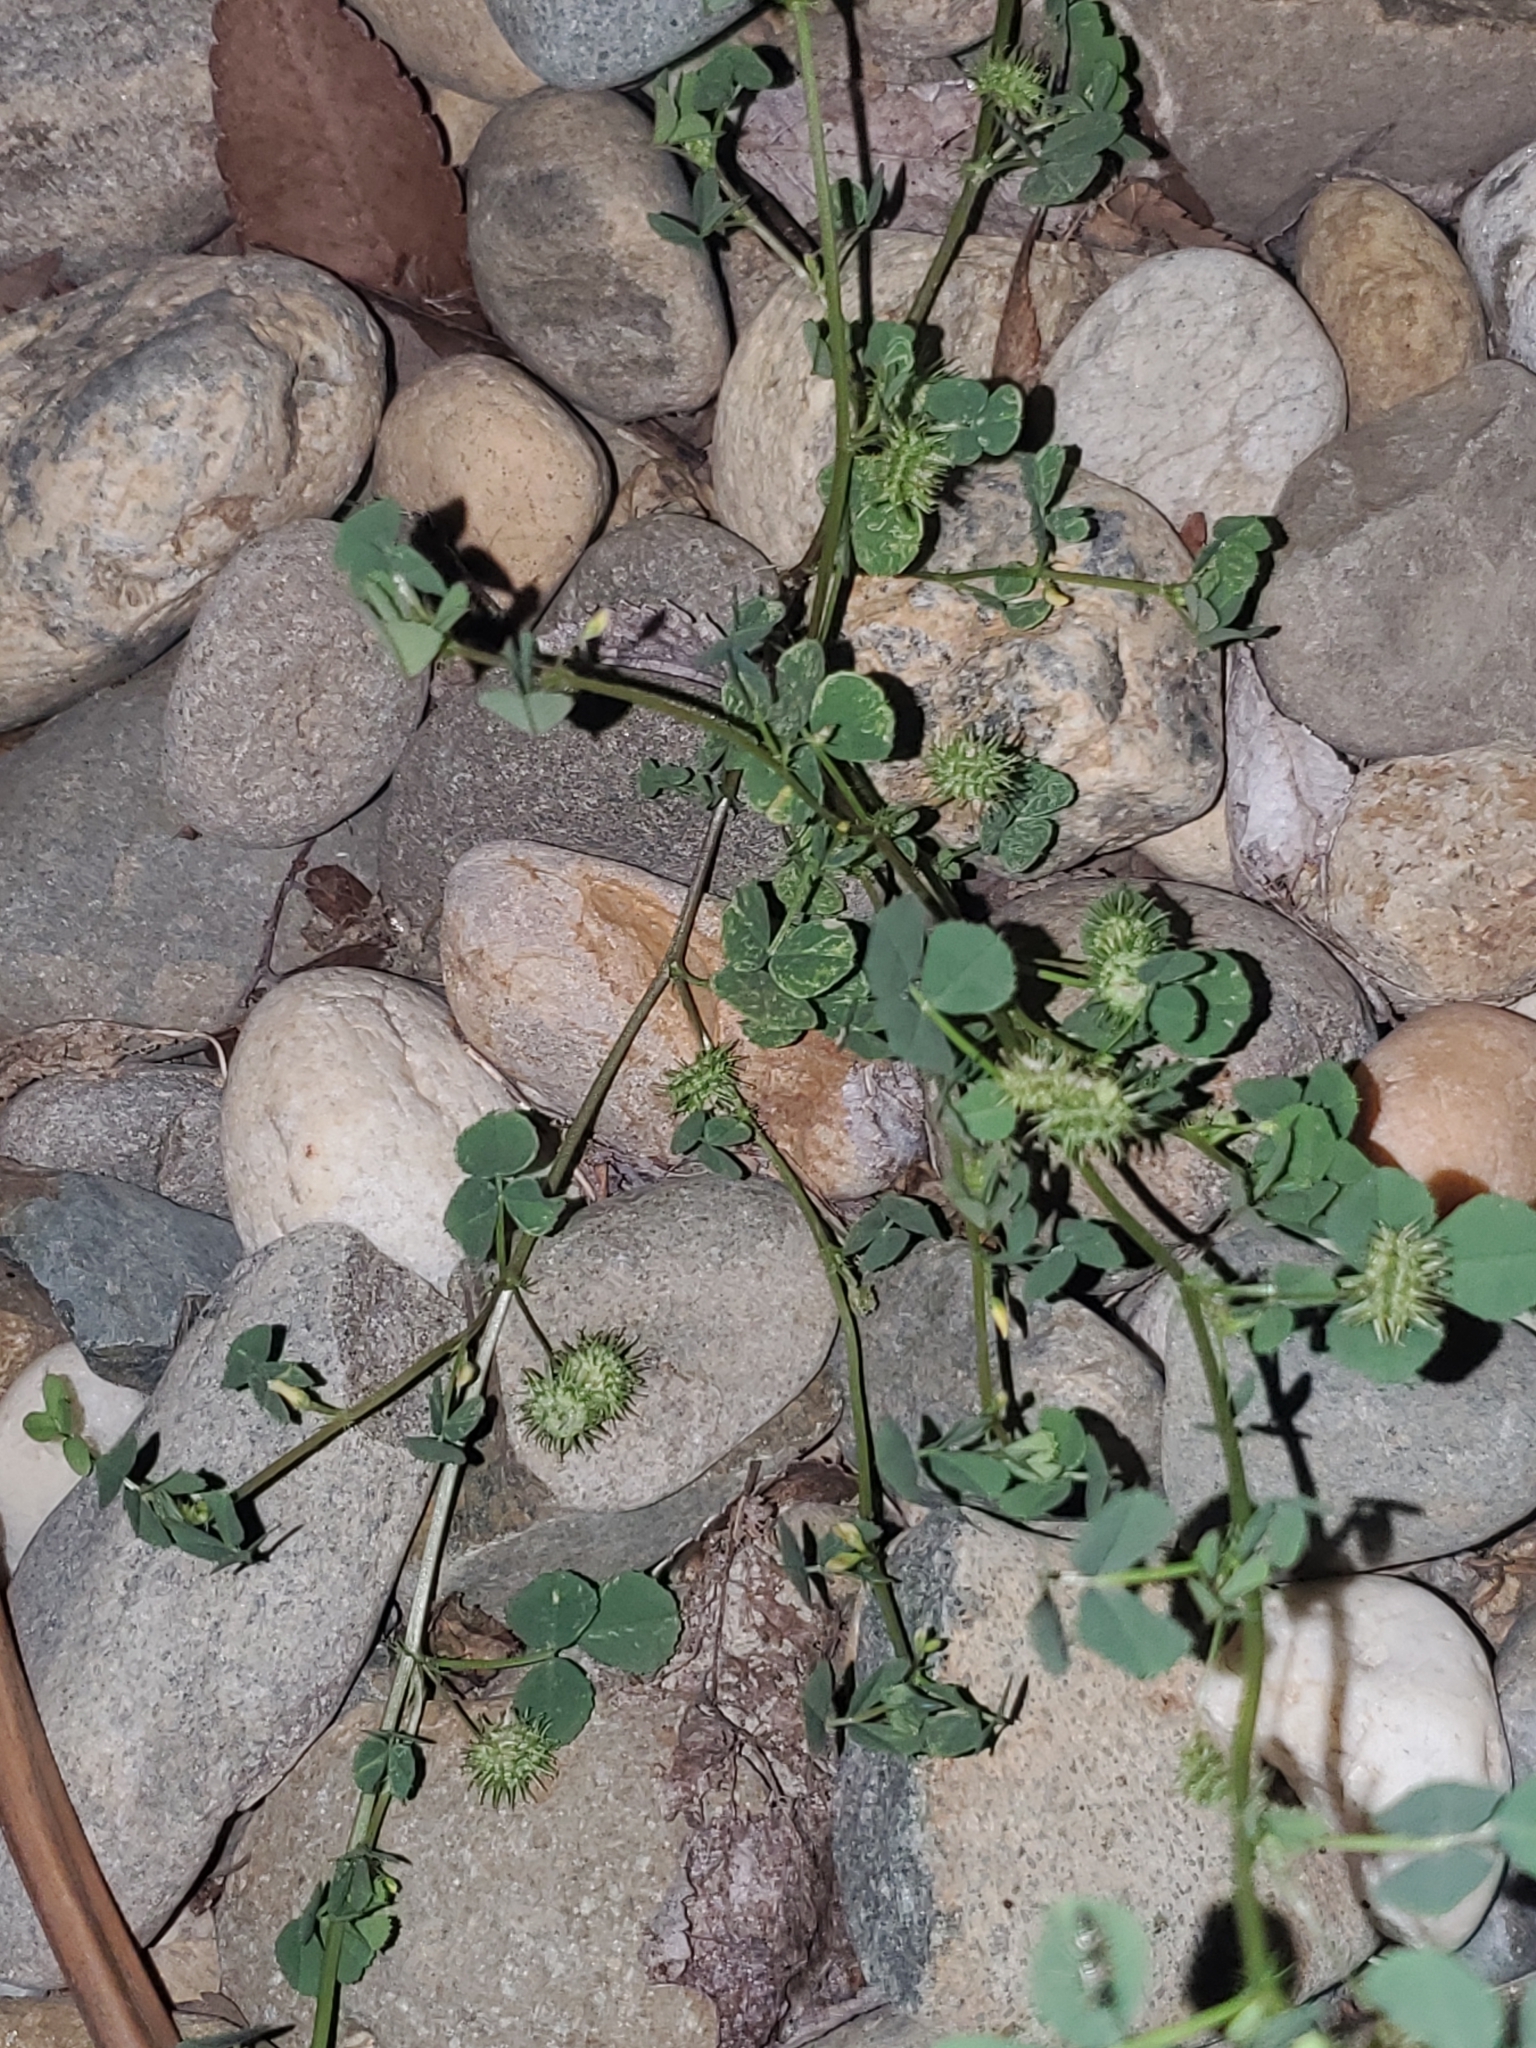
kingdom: Plantae
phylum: Tracheophyta
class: Magnoliopsida
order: Fabales
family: Fabaceae
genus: Medicago
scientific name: Medicago polymorpha
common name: Burclover
